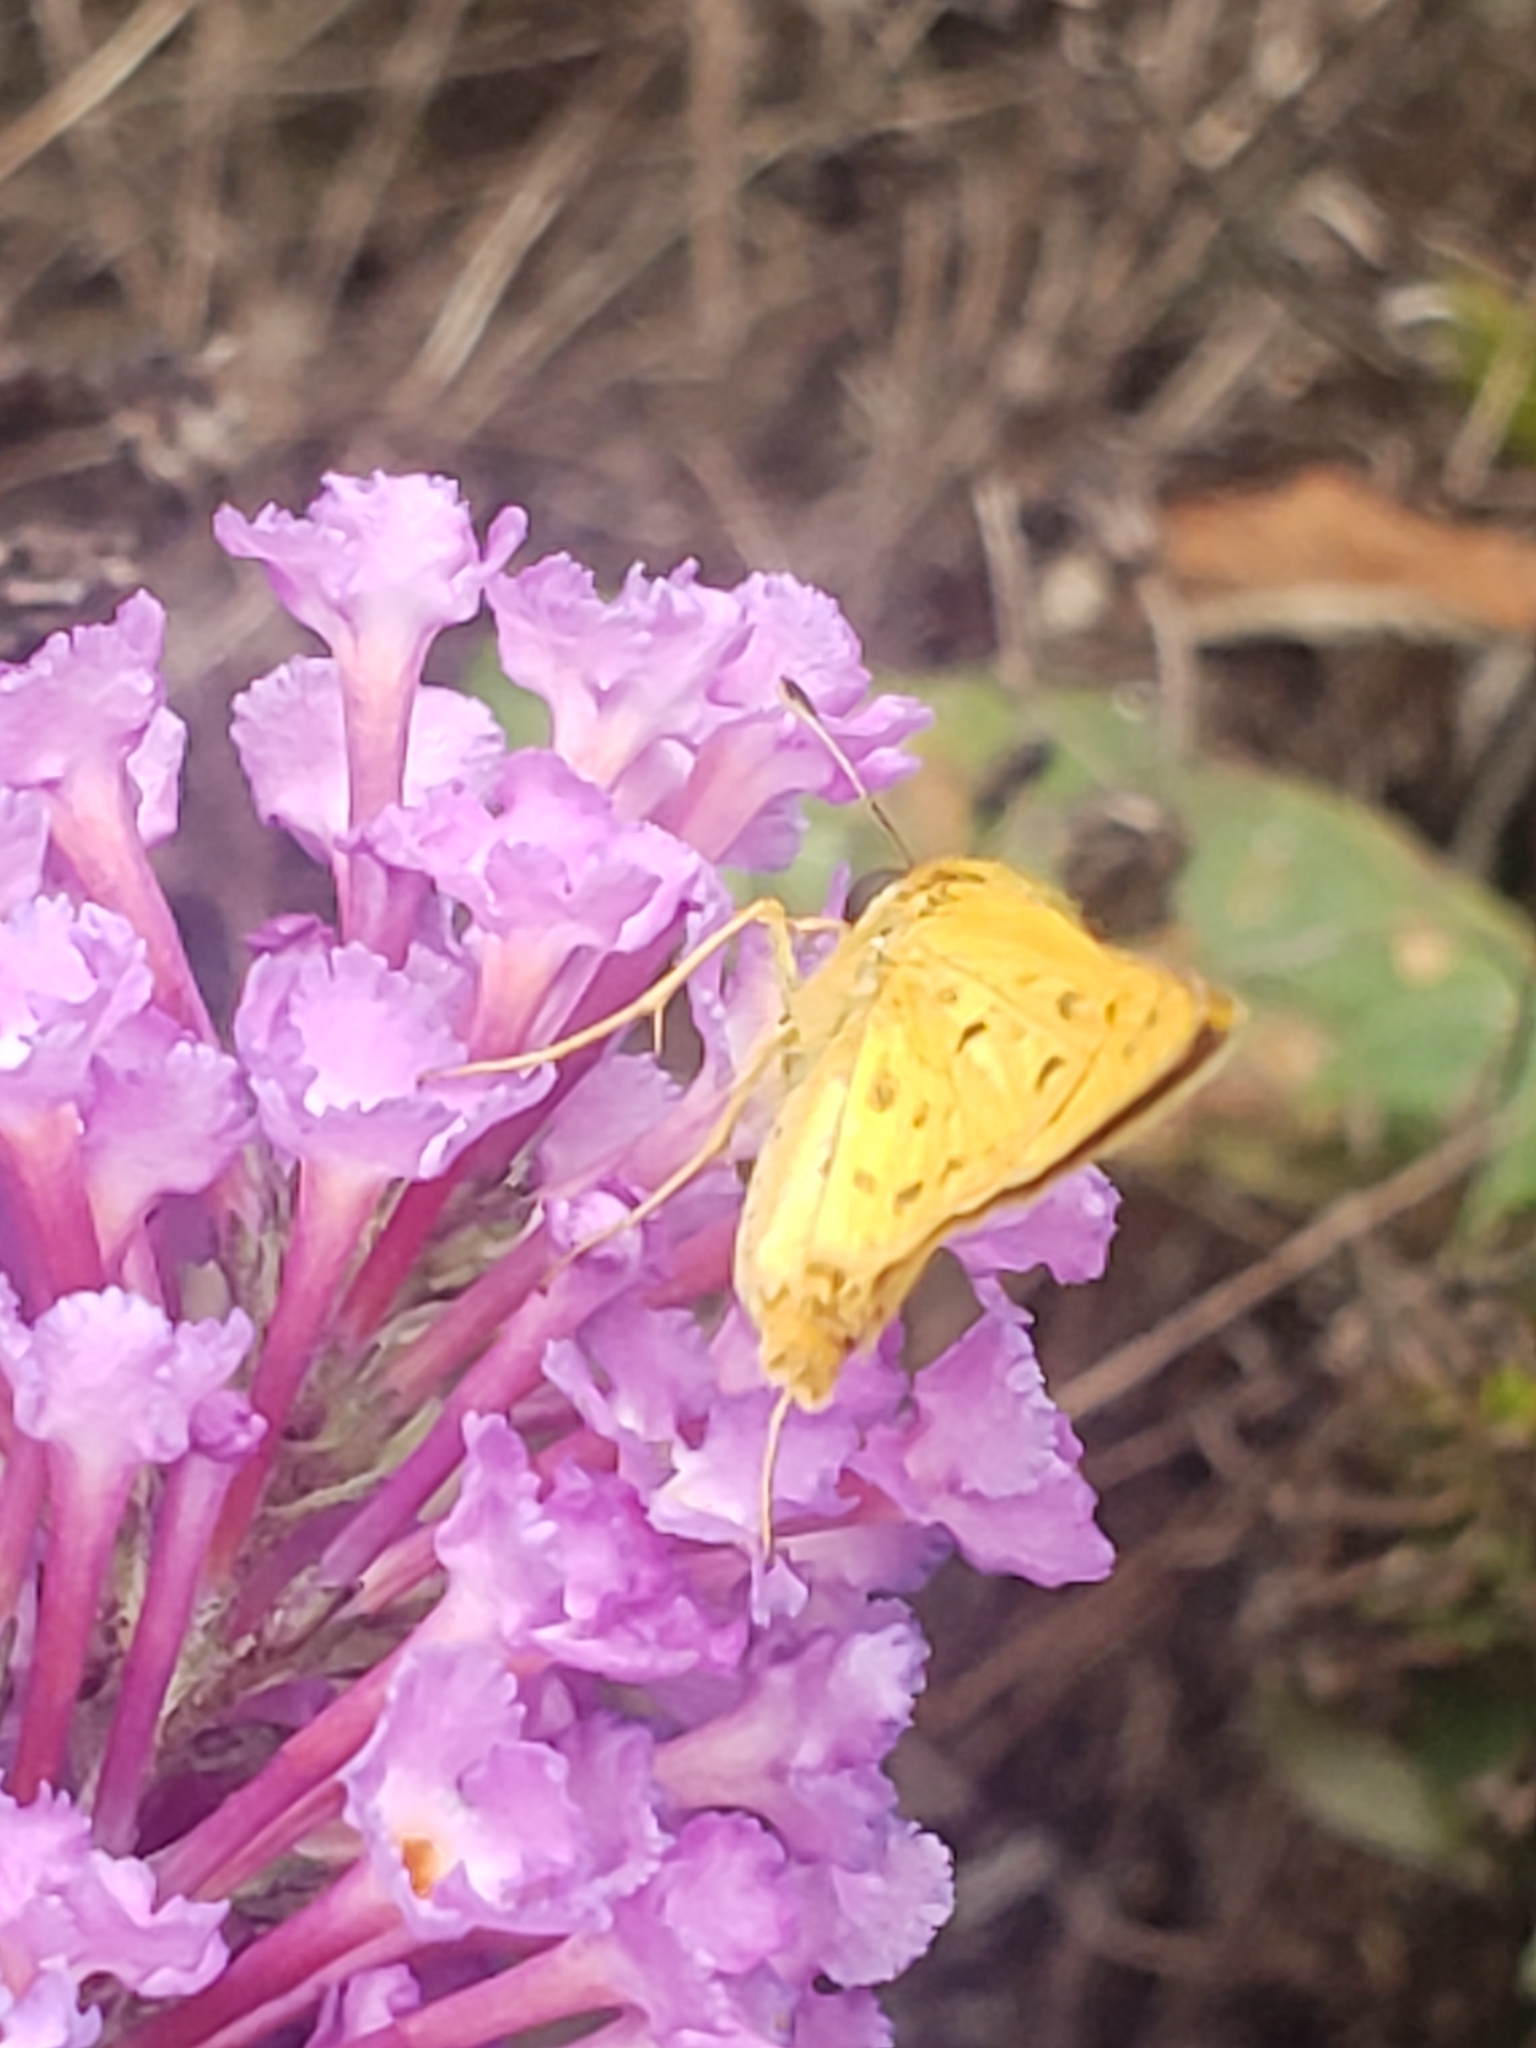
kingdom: Animalia
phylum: Arthropoda
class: Insecta
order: Lepidoptera
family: Hesperiidae
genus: Hylephila
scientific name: Hylephila phyleus
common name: Fiery skipper
